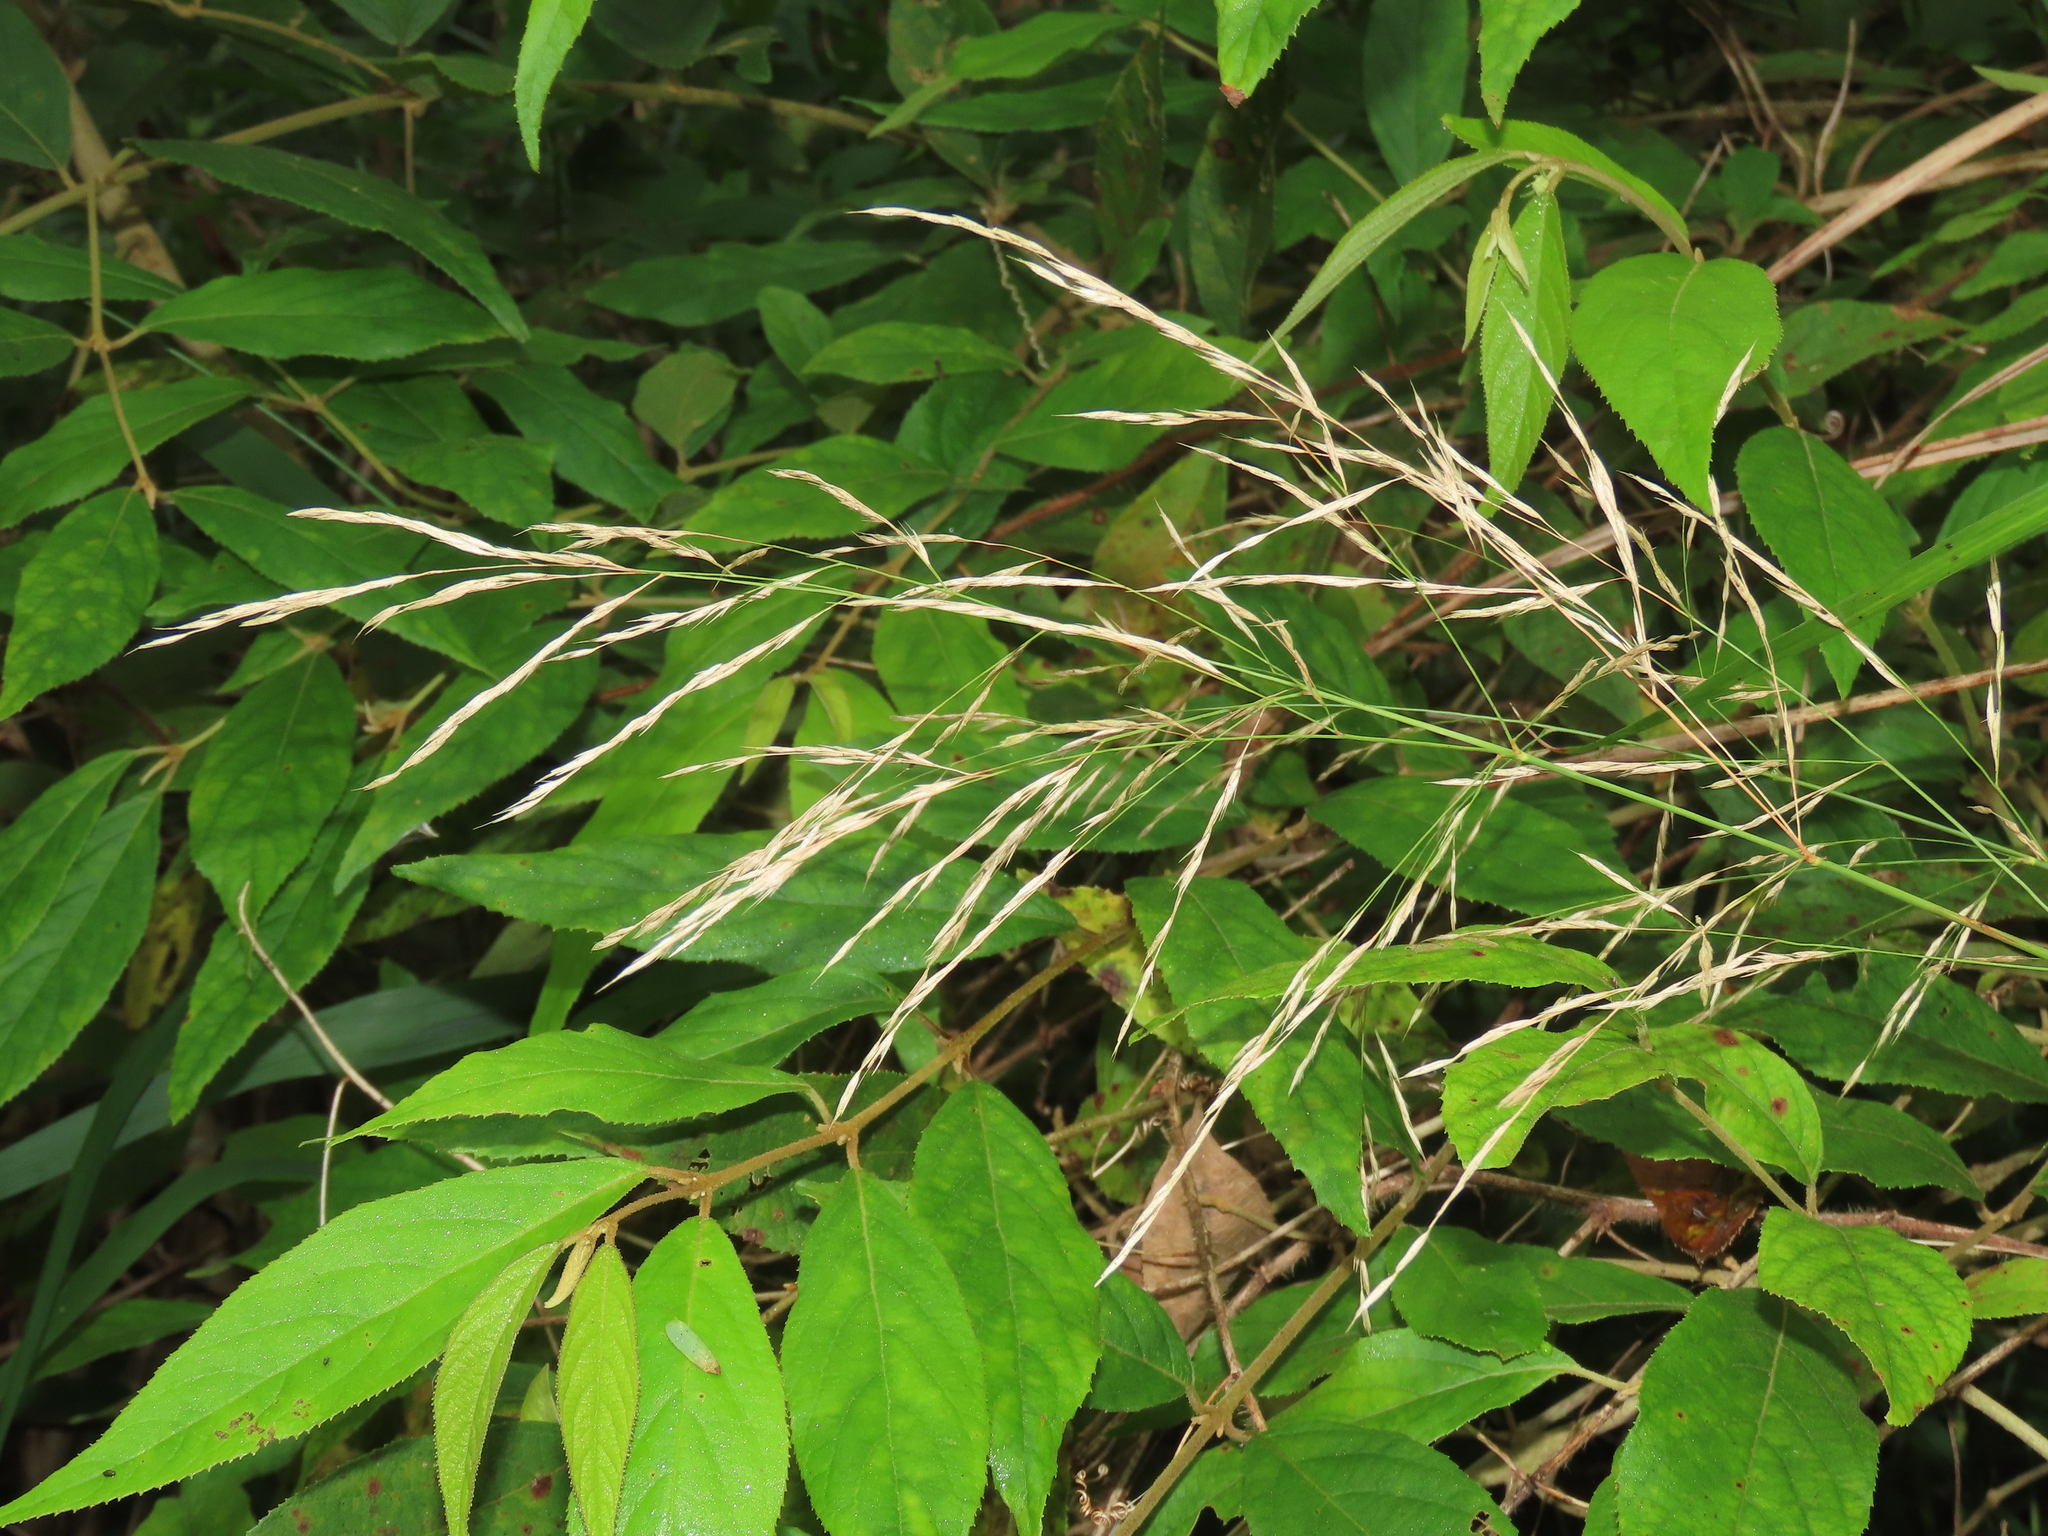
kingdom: Plantae
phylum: Tracheophyta
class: Liliopsida
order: Poales
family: Poaceae
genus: Arundo
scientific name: Arundo formosana
